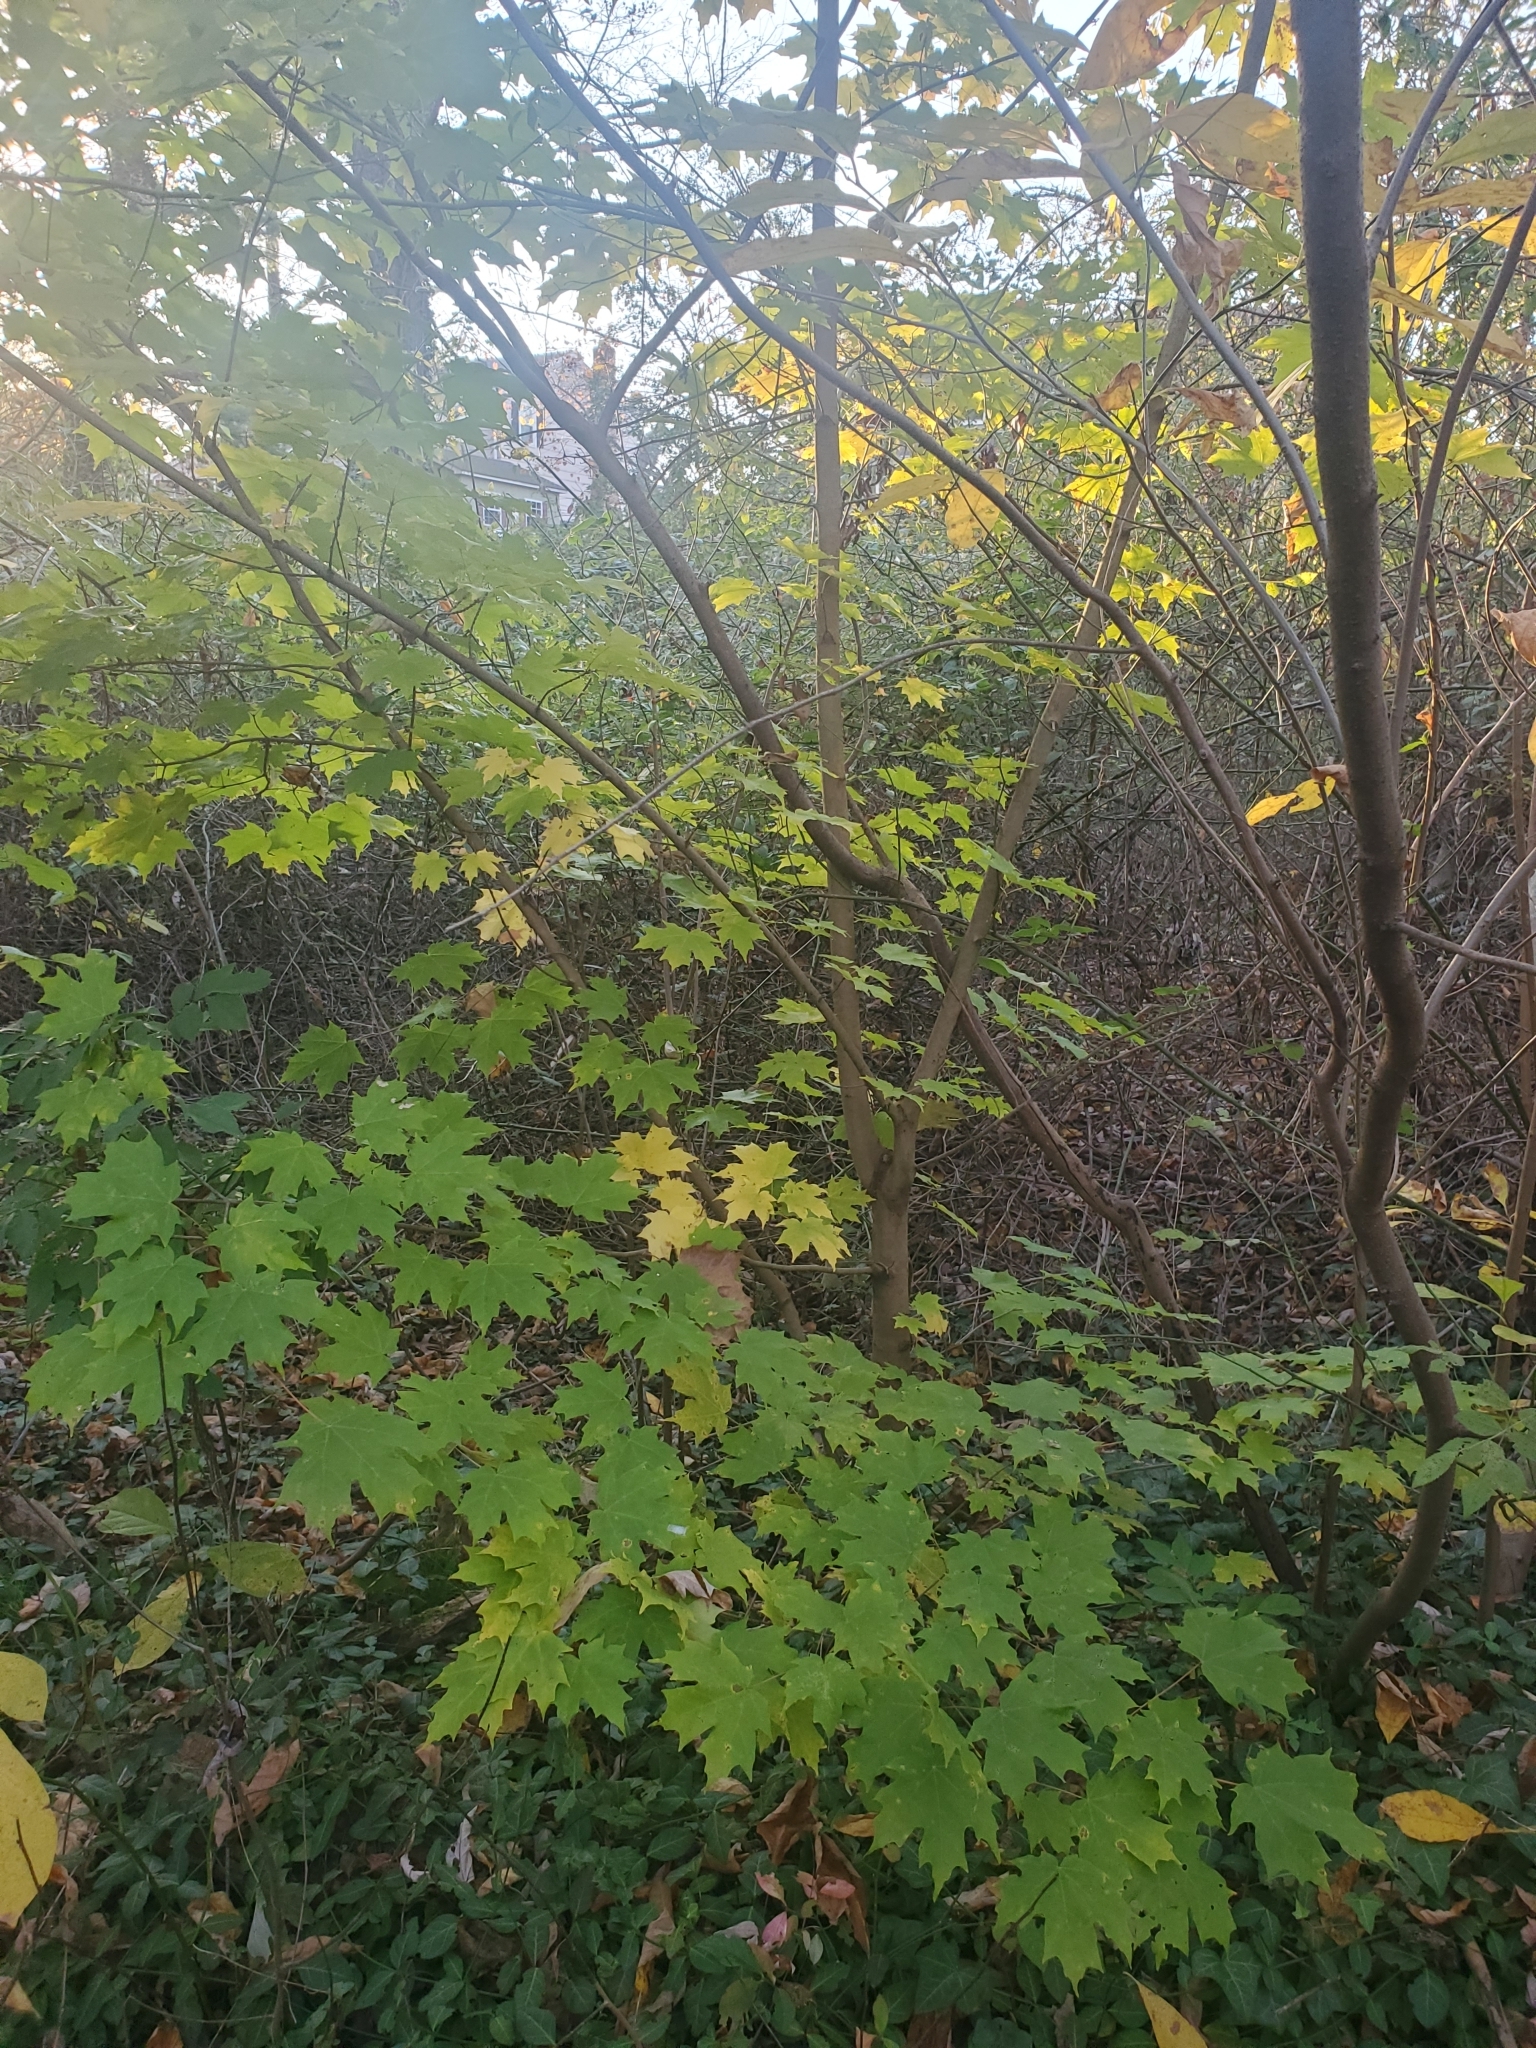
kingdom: Plantae
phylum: Tracheophyta
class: Magnoliopsida
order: Sapindales
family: Sapindaceae
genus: Acer
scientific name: Acer saccharum
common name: Sugar maple
